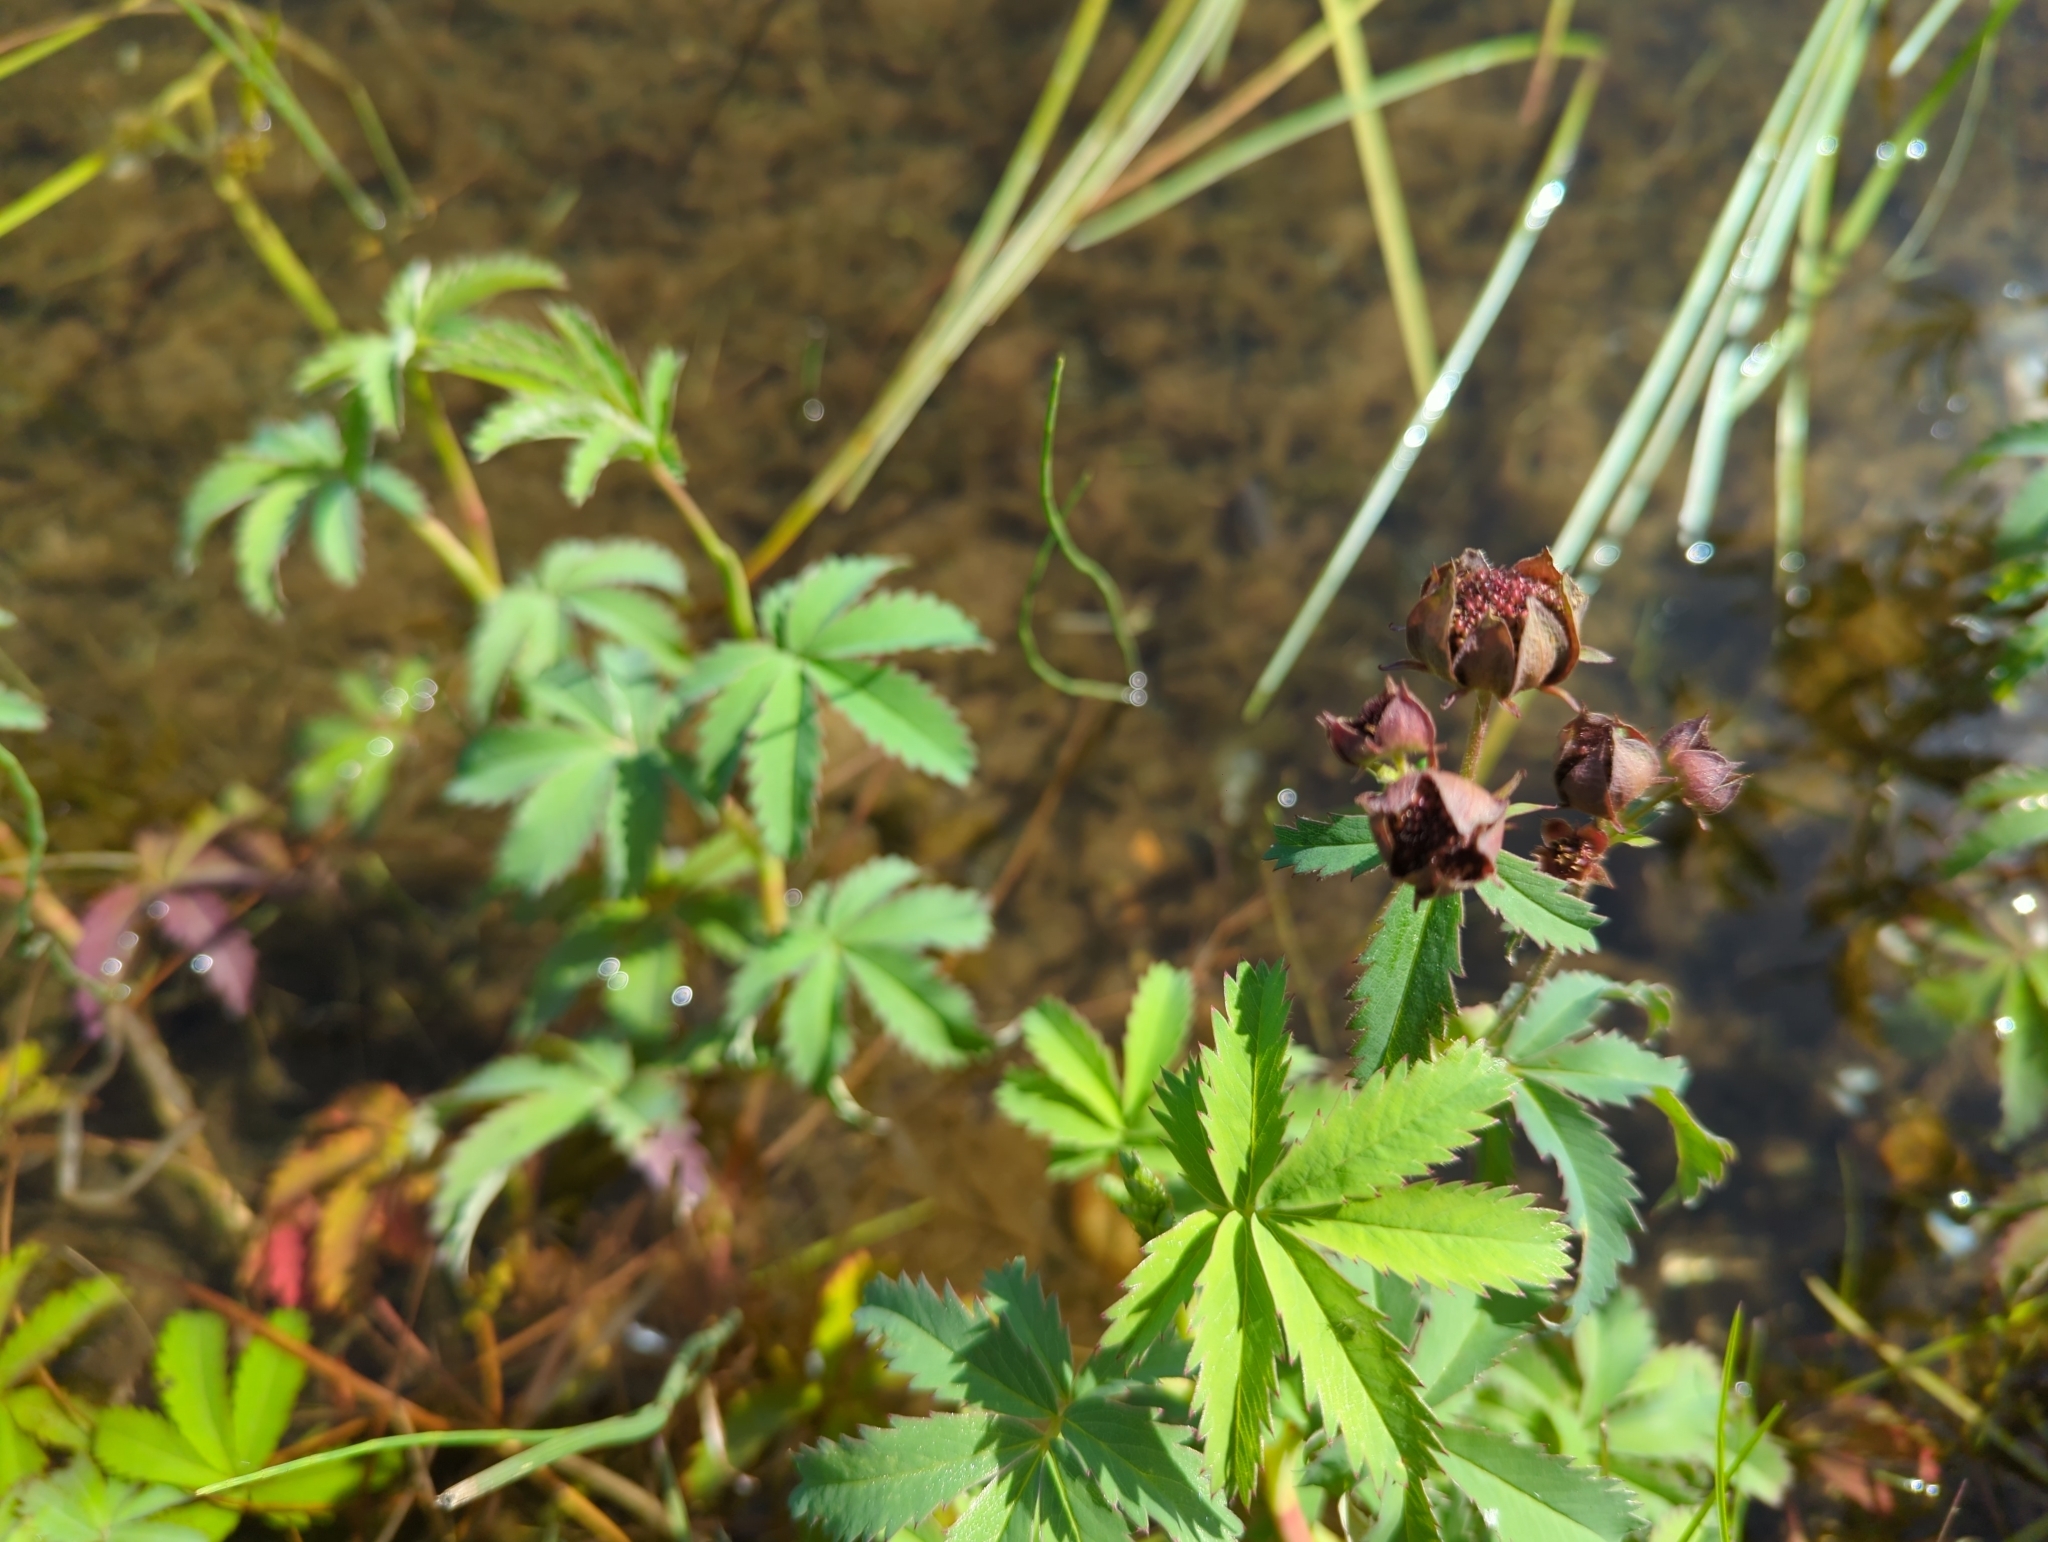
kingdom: Plantae
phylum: Tracheophyta
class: Magnoliopsida
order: Rosales
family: Rosaceae
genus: Comarum
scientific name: Comarum palustre
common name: Marsh cinquefoil
